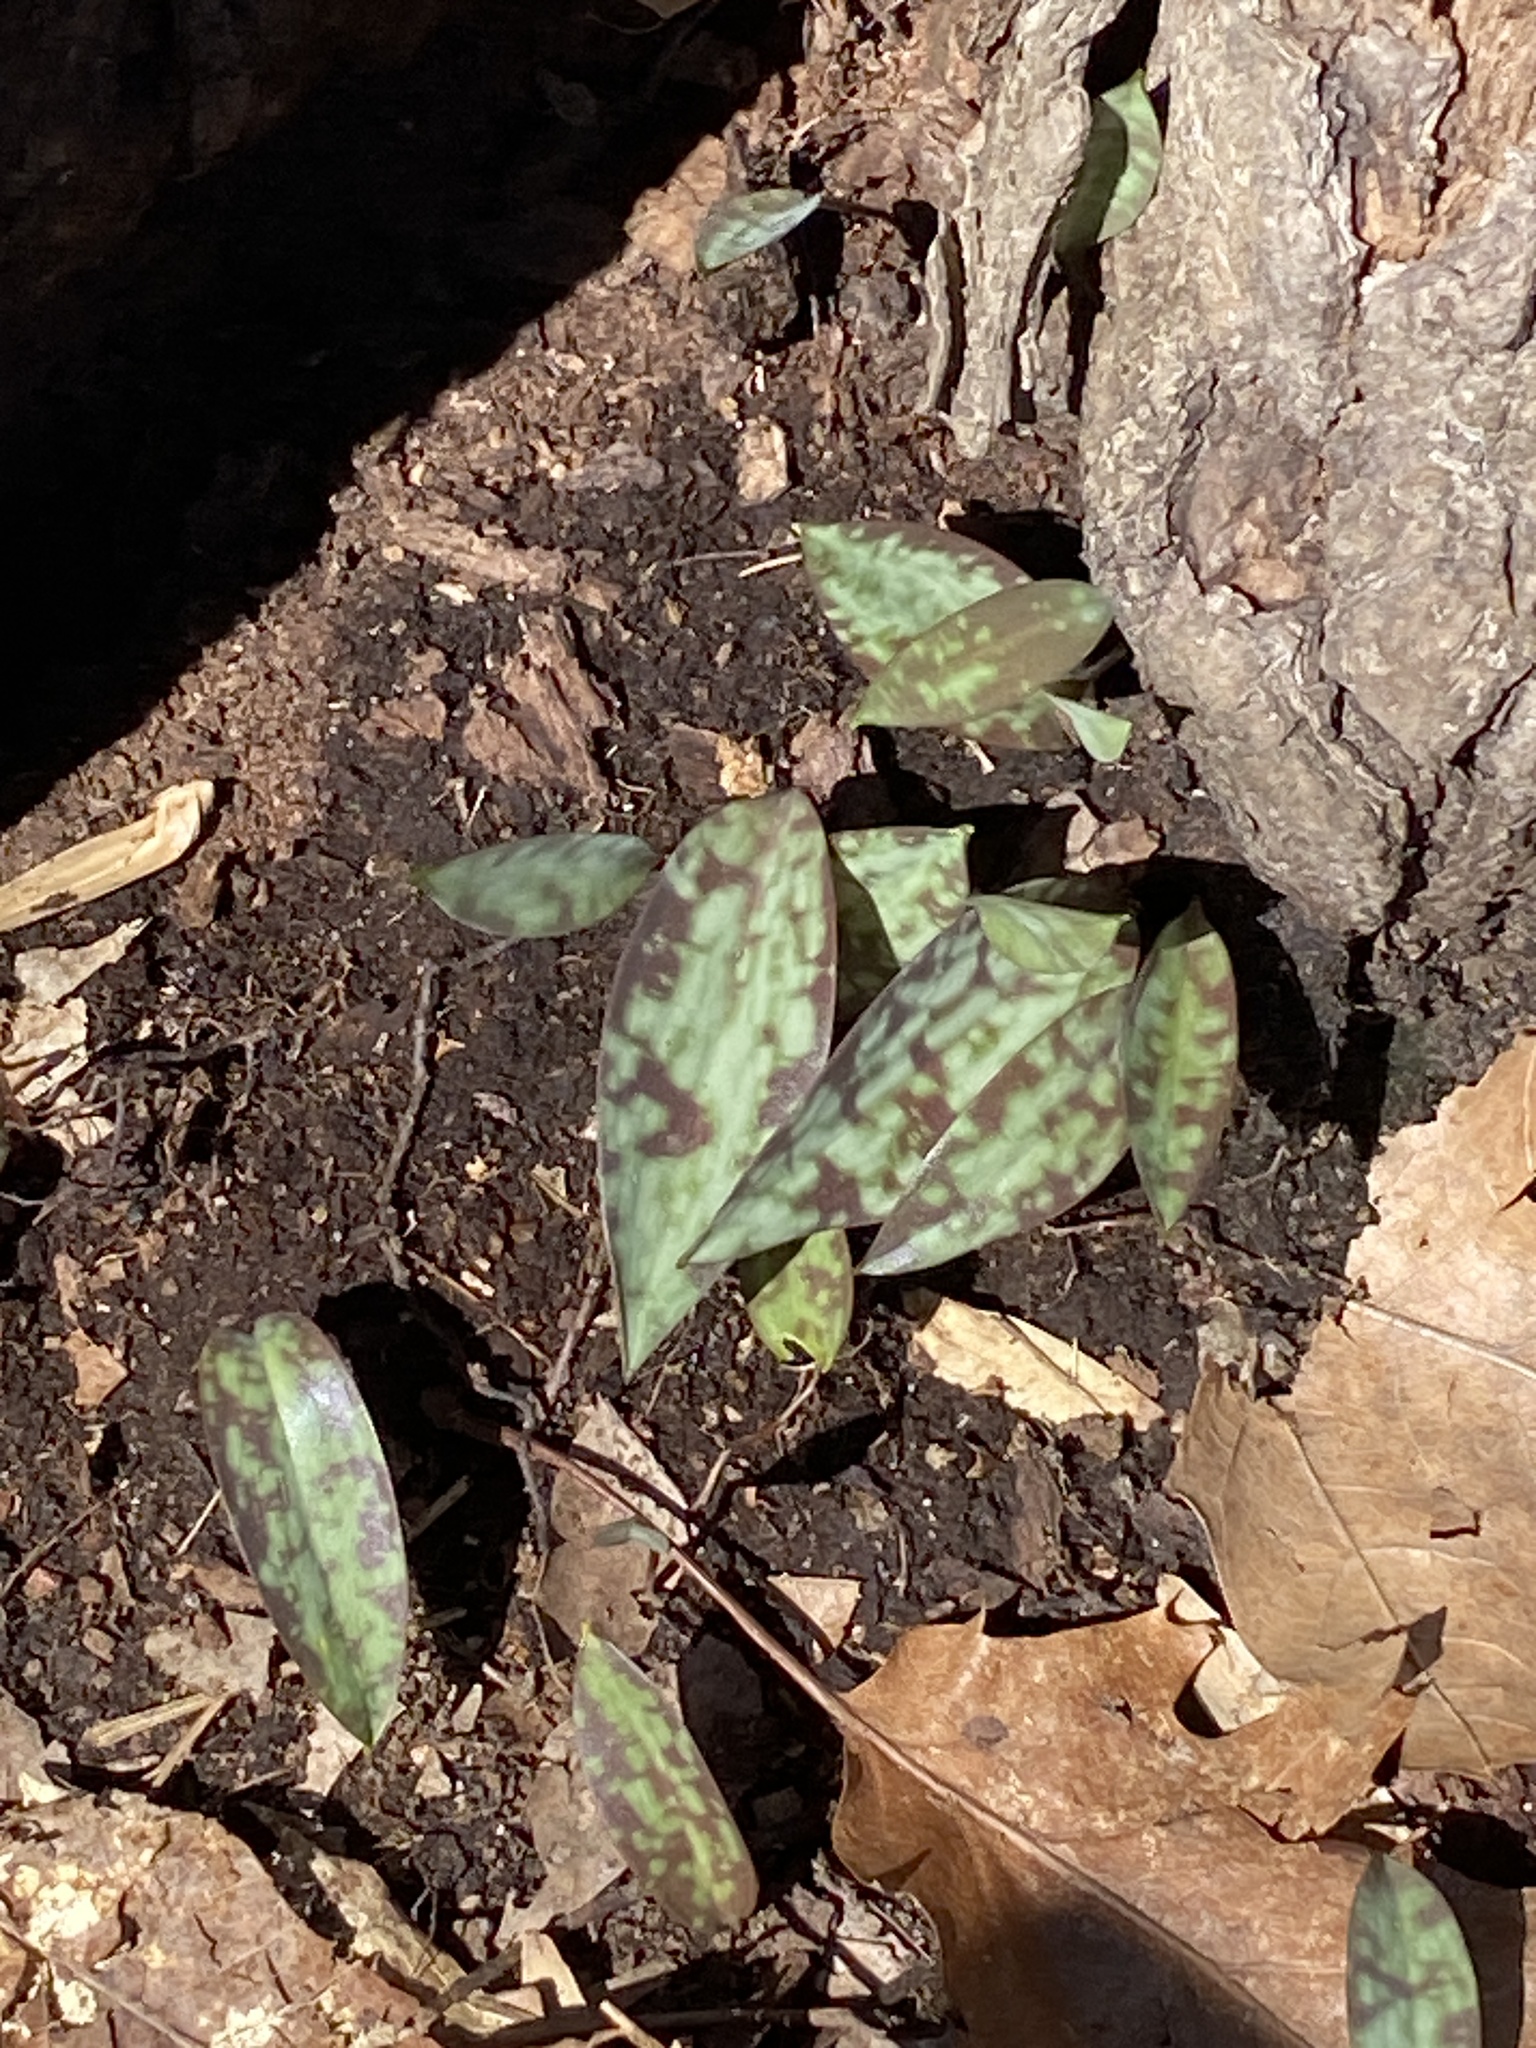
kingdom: Plantae
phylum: Tracheophyta
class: Liliopsida
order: Liliales
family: Liliaceae
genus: Erythronium
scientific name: Erythronium americanum
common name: Yellow adder's-tongue
